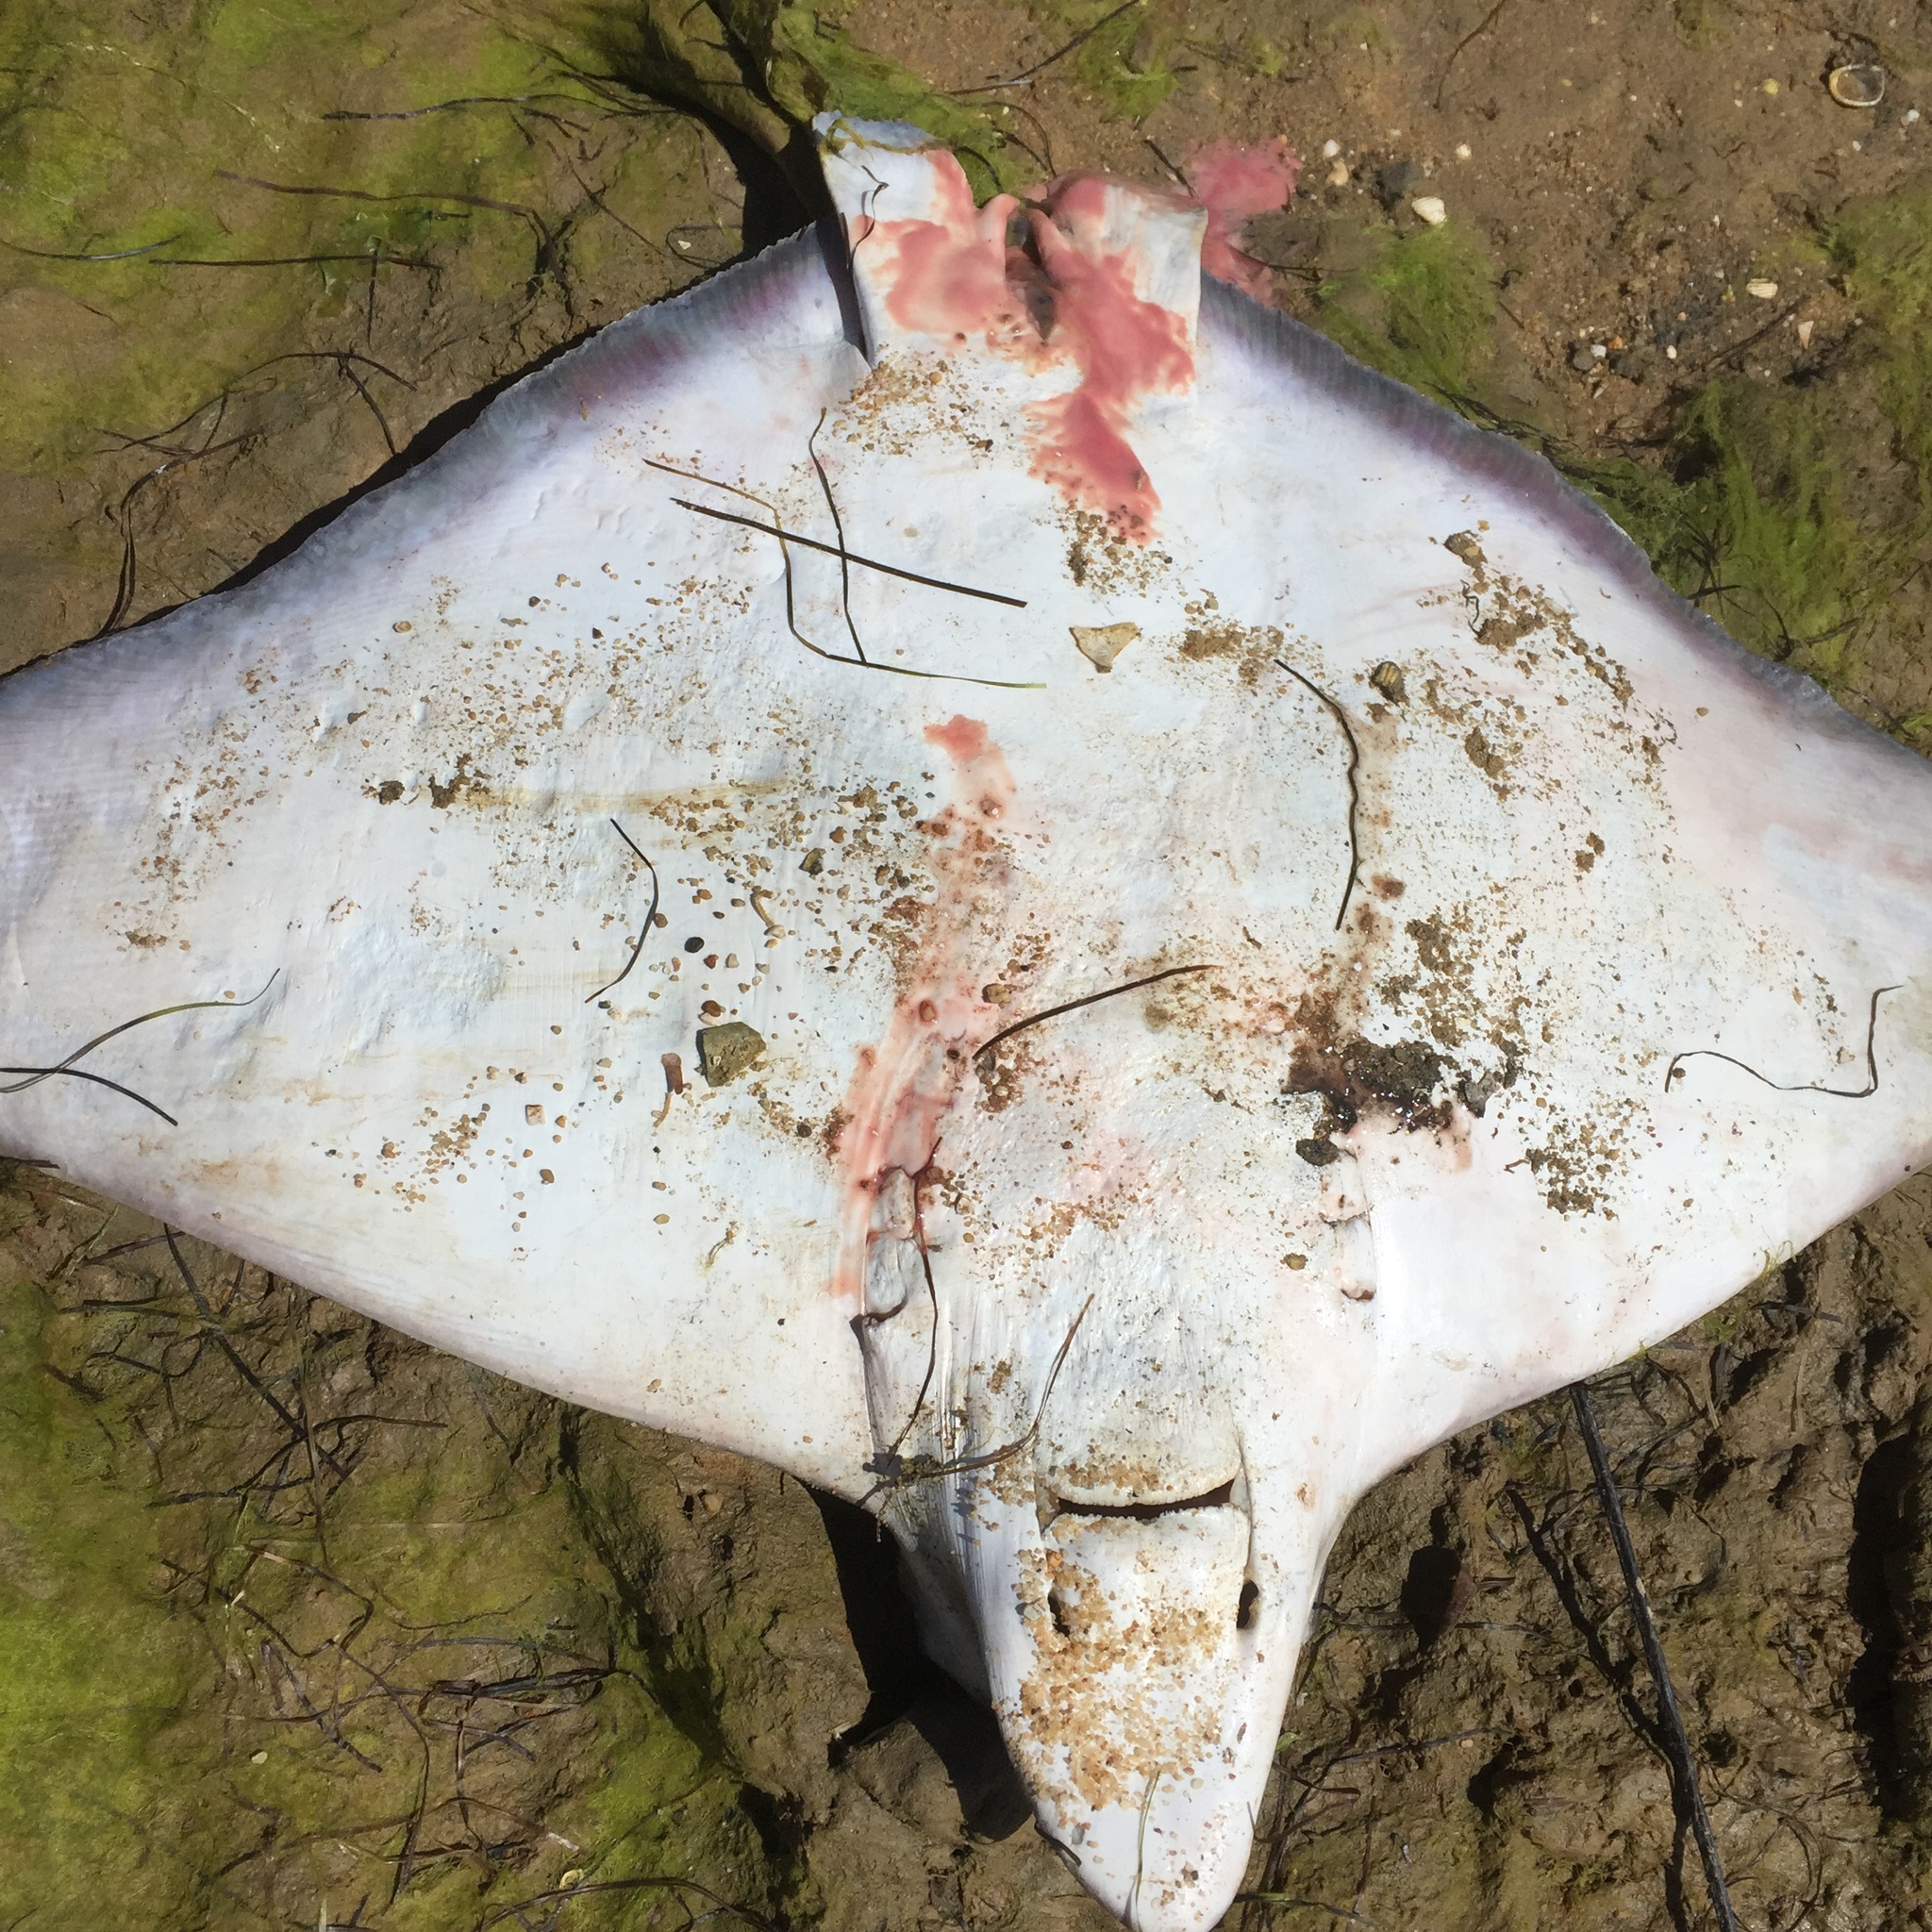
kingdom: Animalia
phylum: Chordata
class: Elasmobranchii
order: Myliobatiformes
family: Myliobatidae
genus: Aetomylaeus
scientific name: Aetomylaeus bovinus
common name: Bull ray
